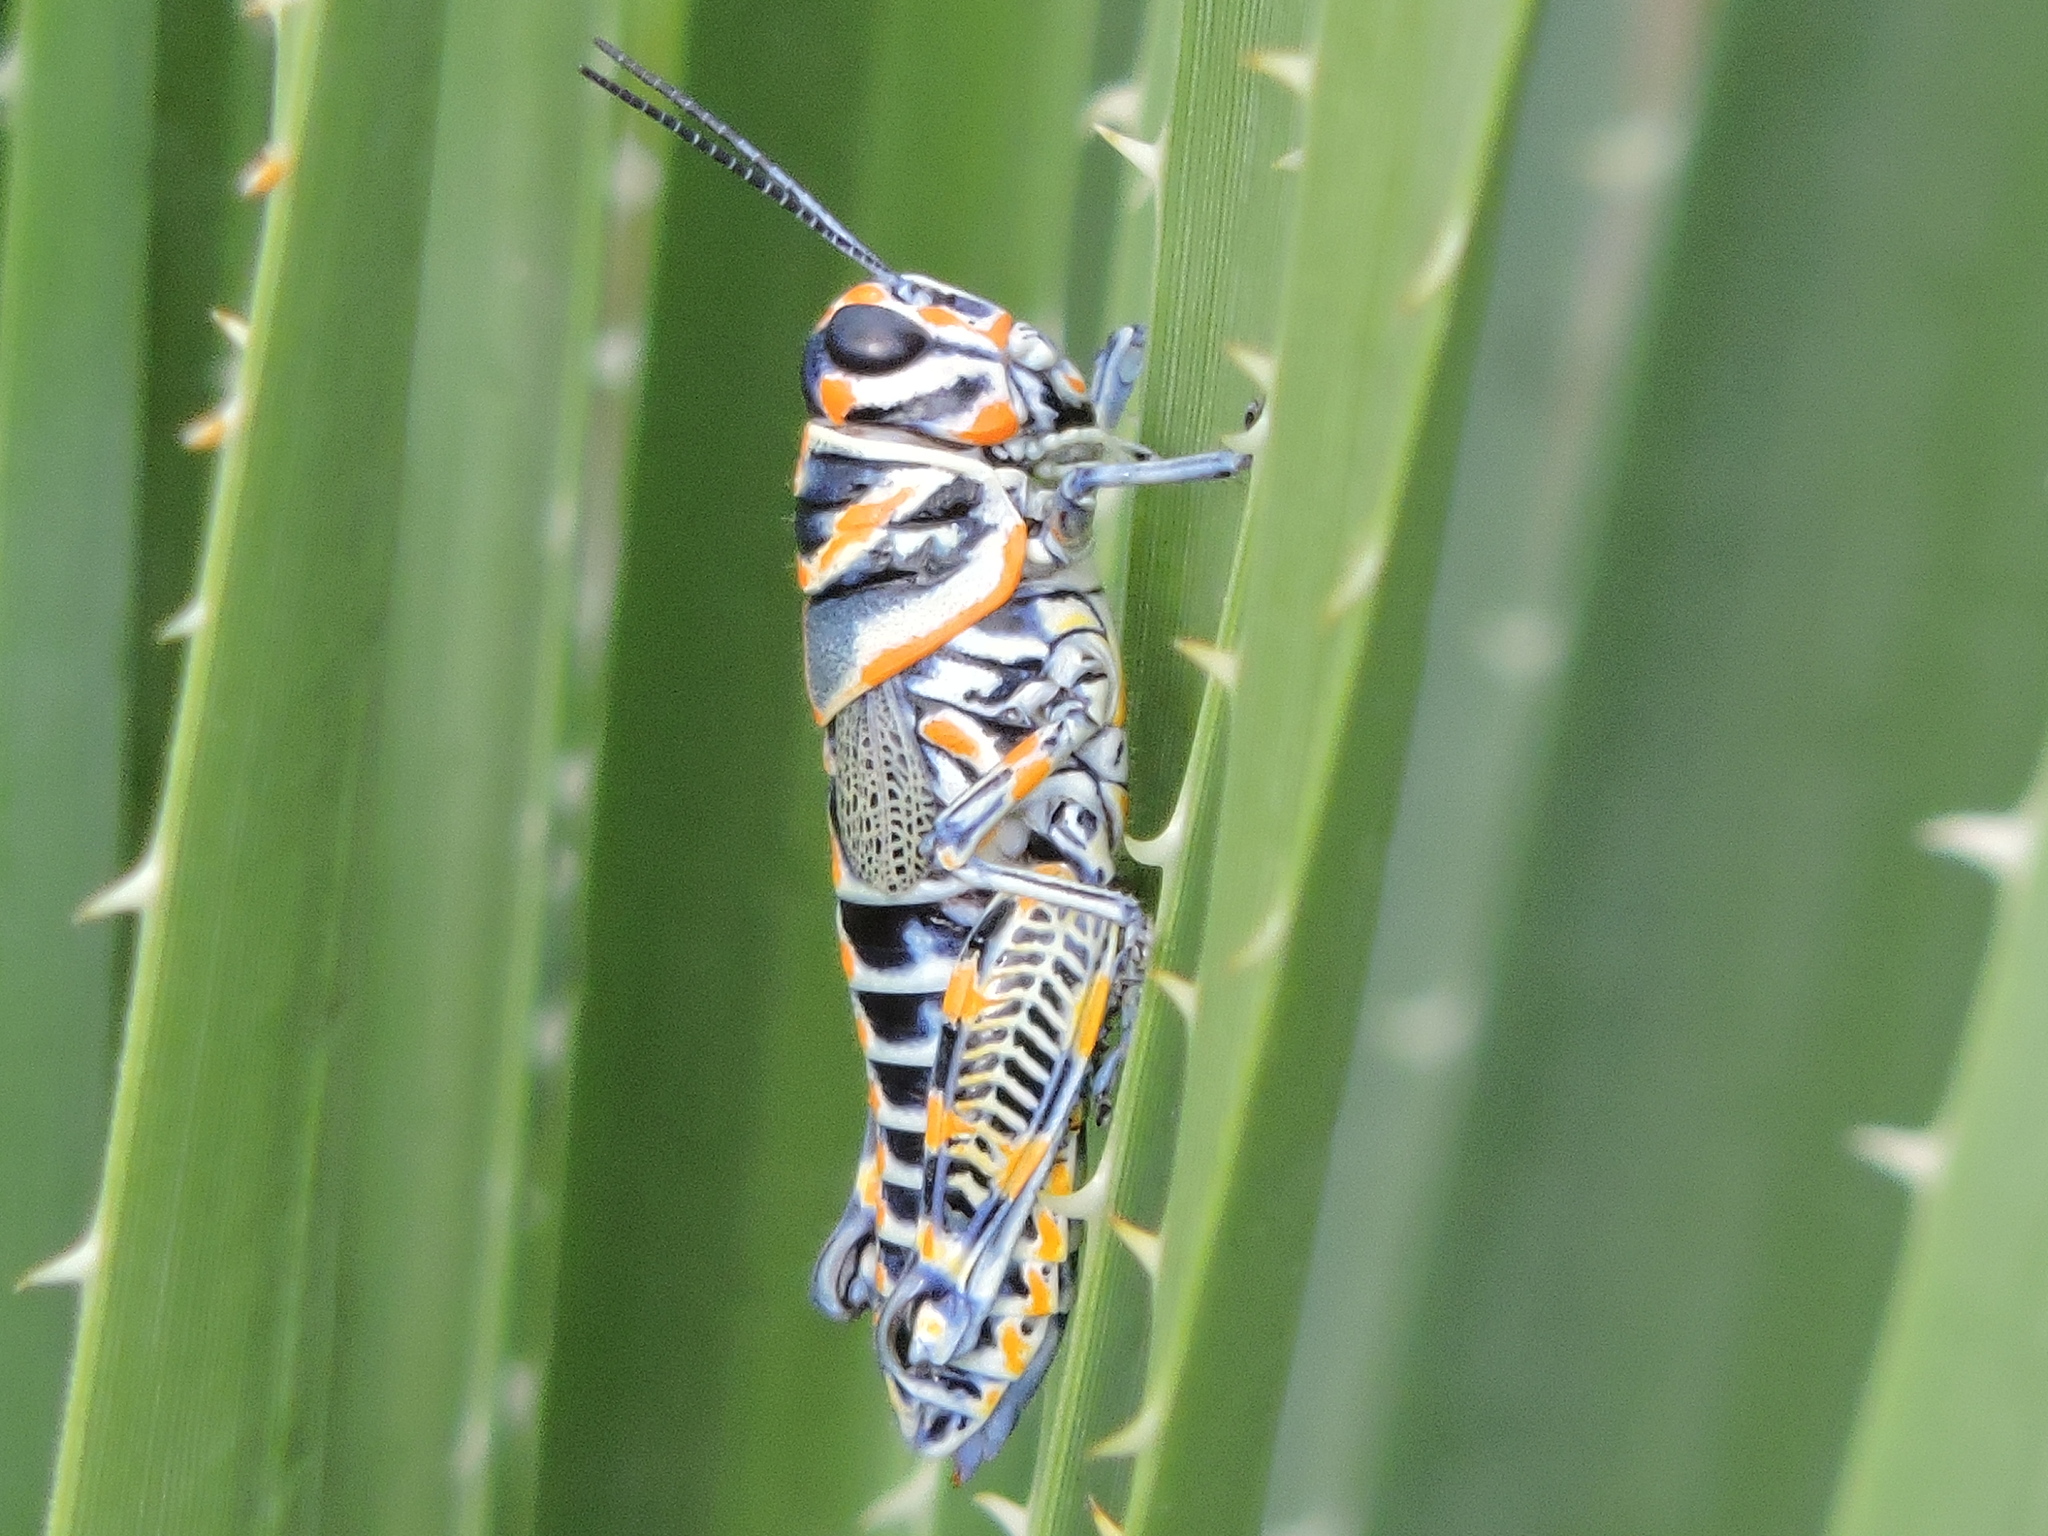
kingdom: Animalia
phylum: Arthropoda
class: Insecta
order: Orthoptera
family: Acrididae
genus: Dactylotum
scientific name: Dactylotum bicolor
